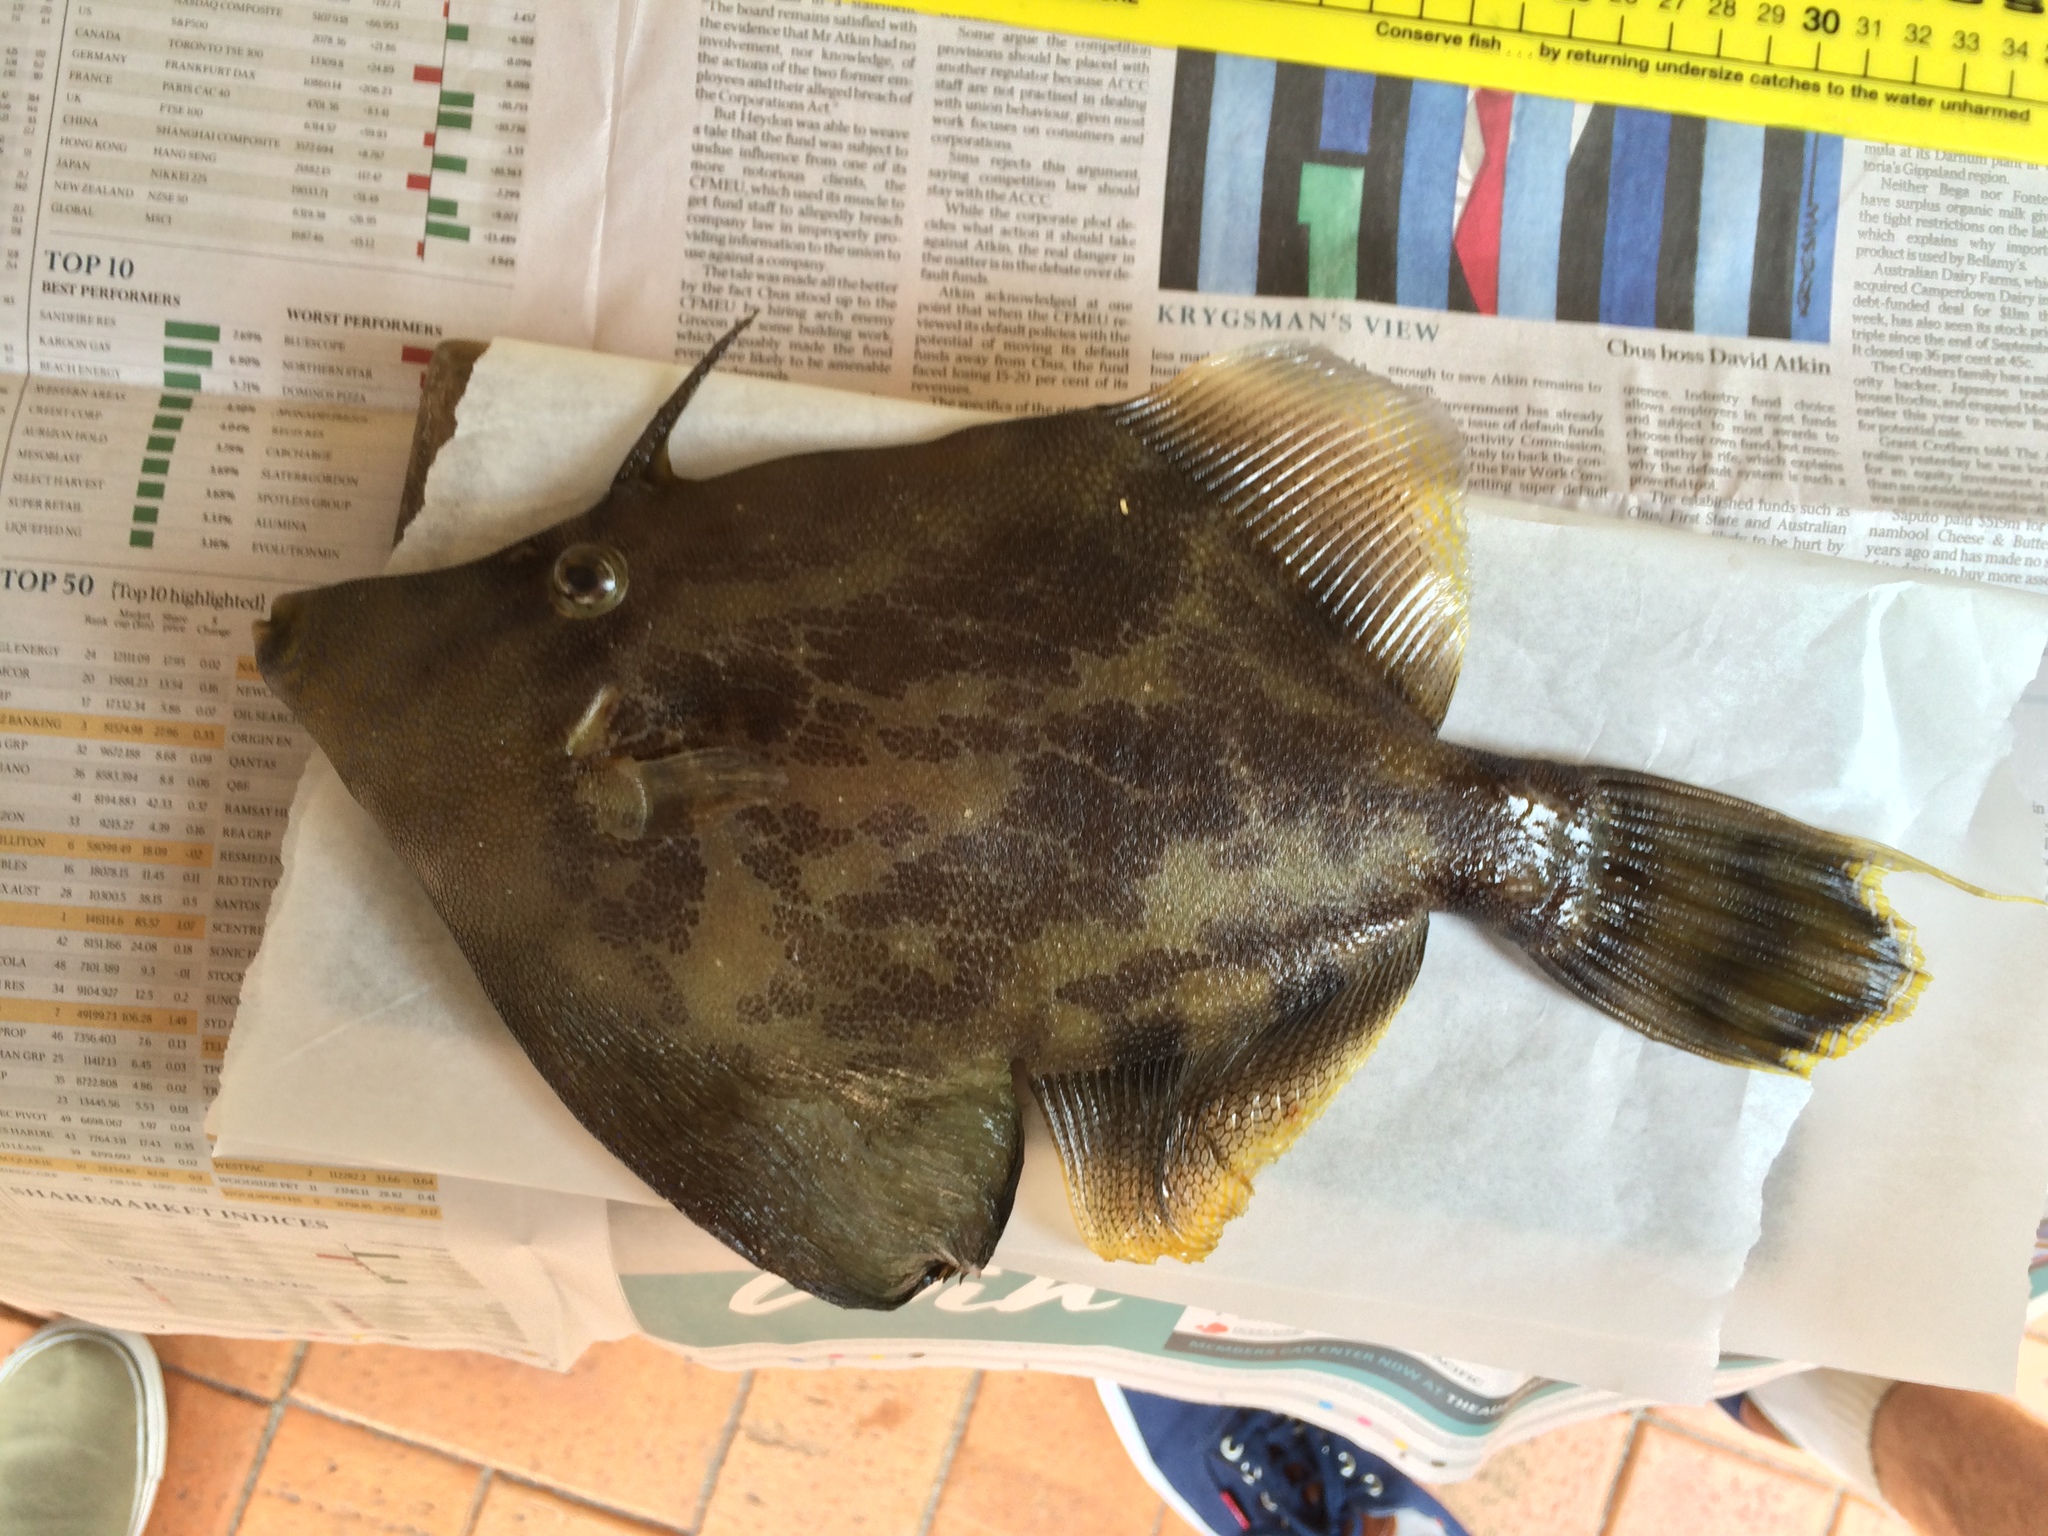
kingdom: Animalia
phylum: Chordata
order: Tetraodontiformes
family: Monacanthidae
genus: Monacanthus
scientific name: Monacanthus chinensis
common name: Centreboard leatherjacket
